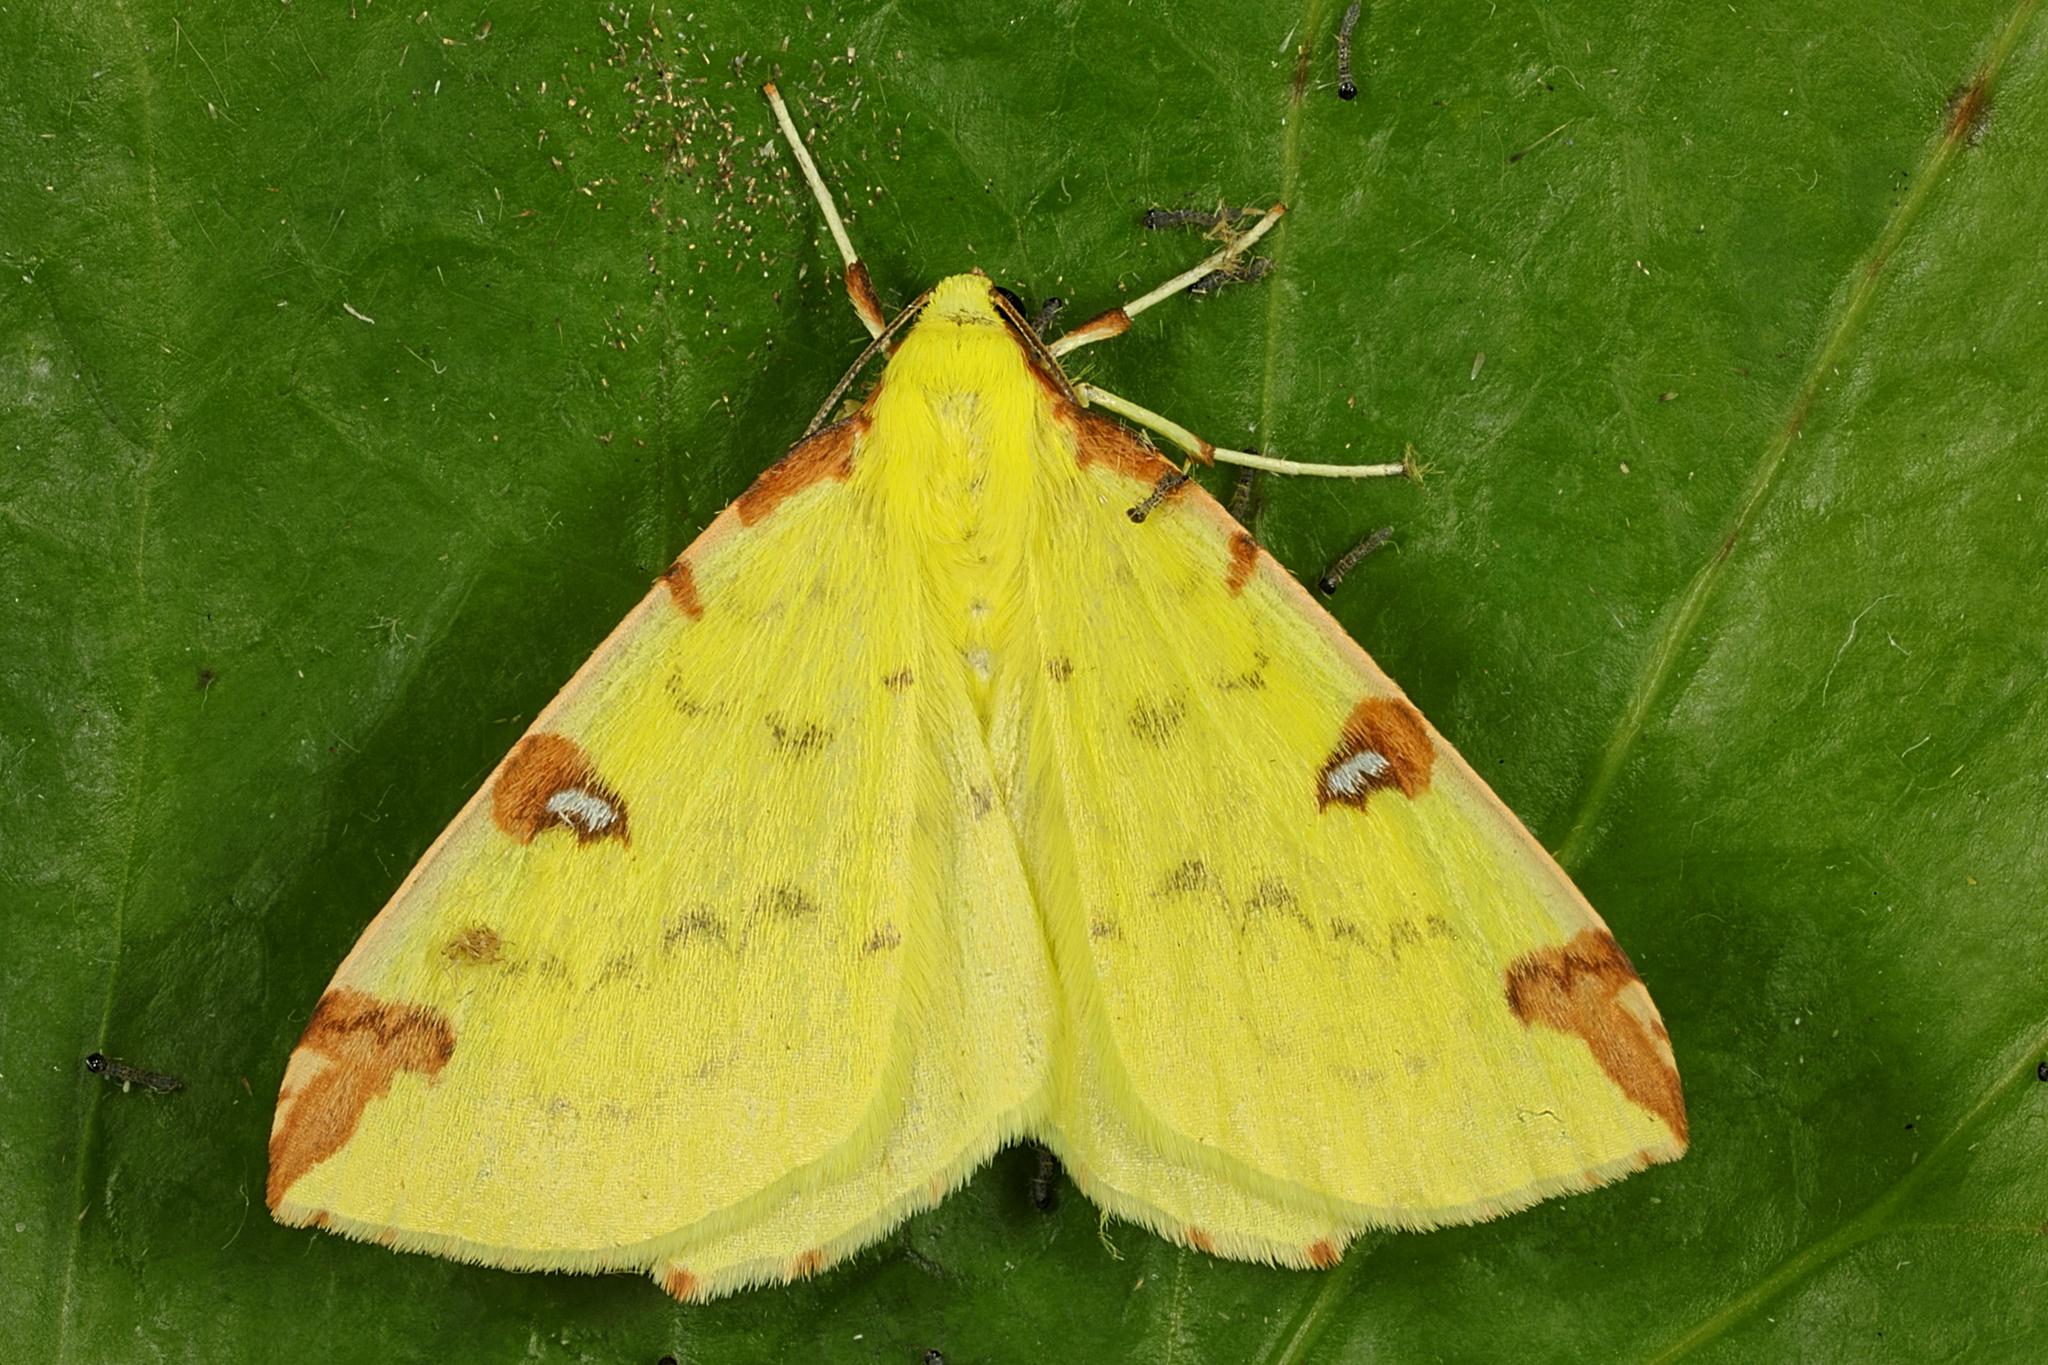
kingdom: Animalia
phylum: Arthropoda
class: Insecta
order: Lepidoptera
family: Geometridae
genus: Opisthograptis
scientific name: Opisthograptis luteolata
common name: Brimstone moth
